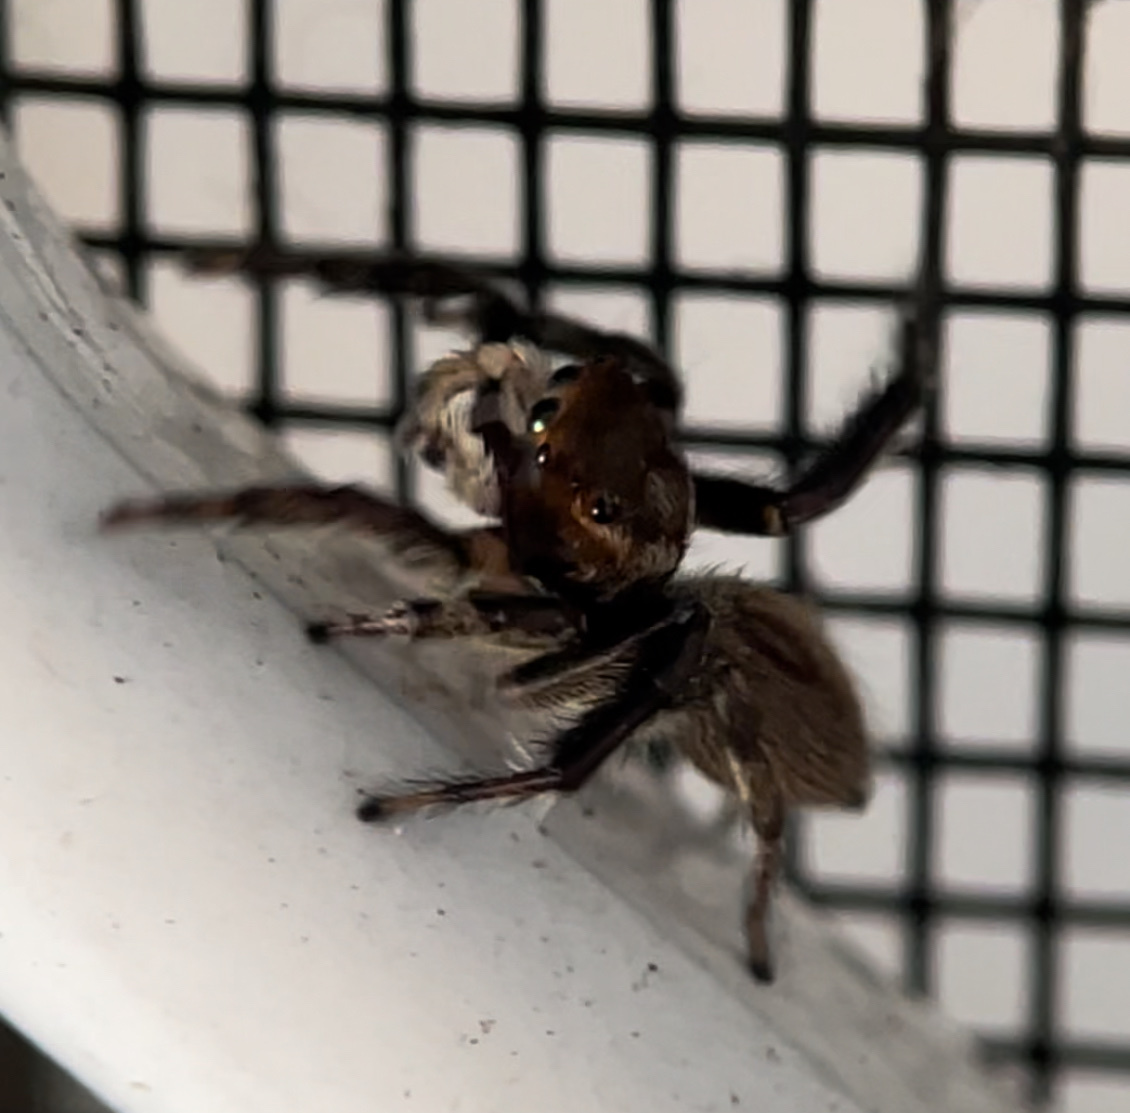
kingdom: Animalia
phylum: Arthropoda
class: Arachnida
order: Araneae
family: Salticidae
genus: Maratus
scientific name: Maratus griseus
